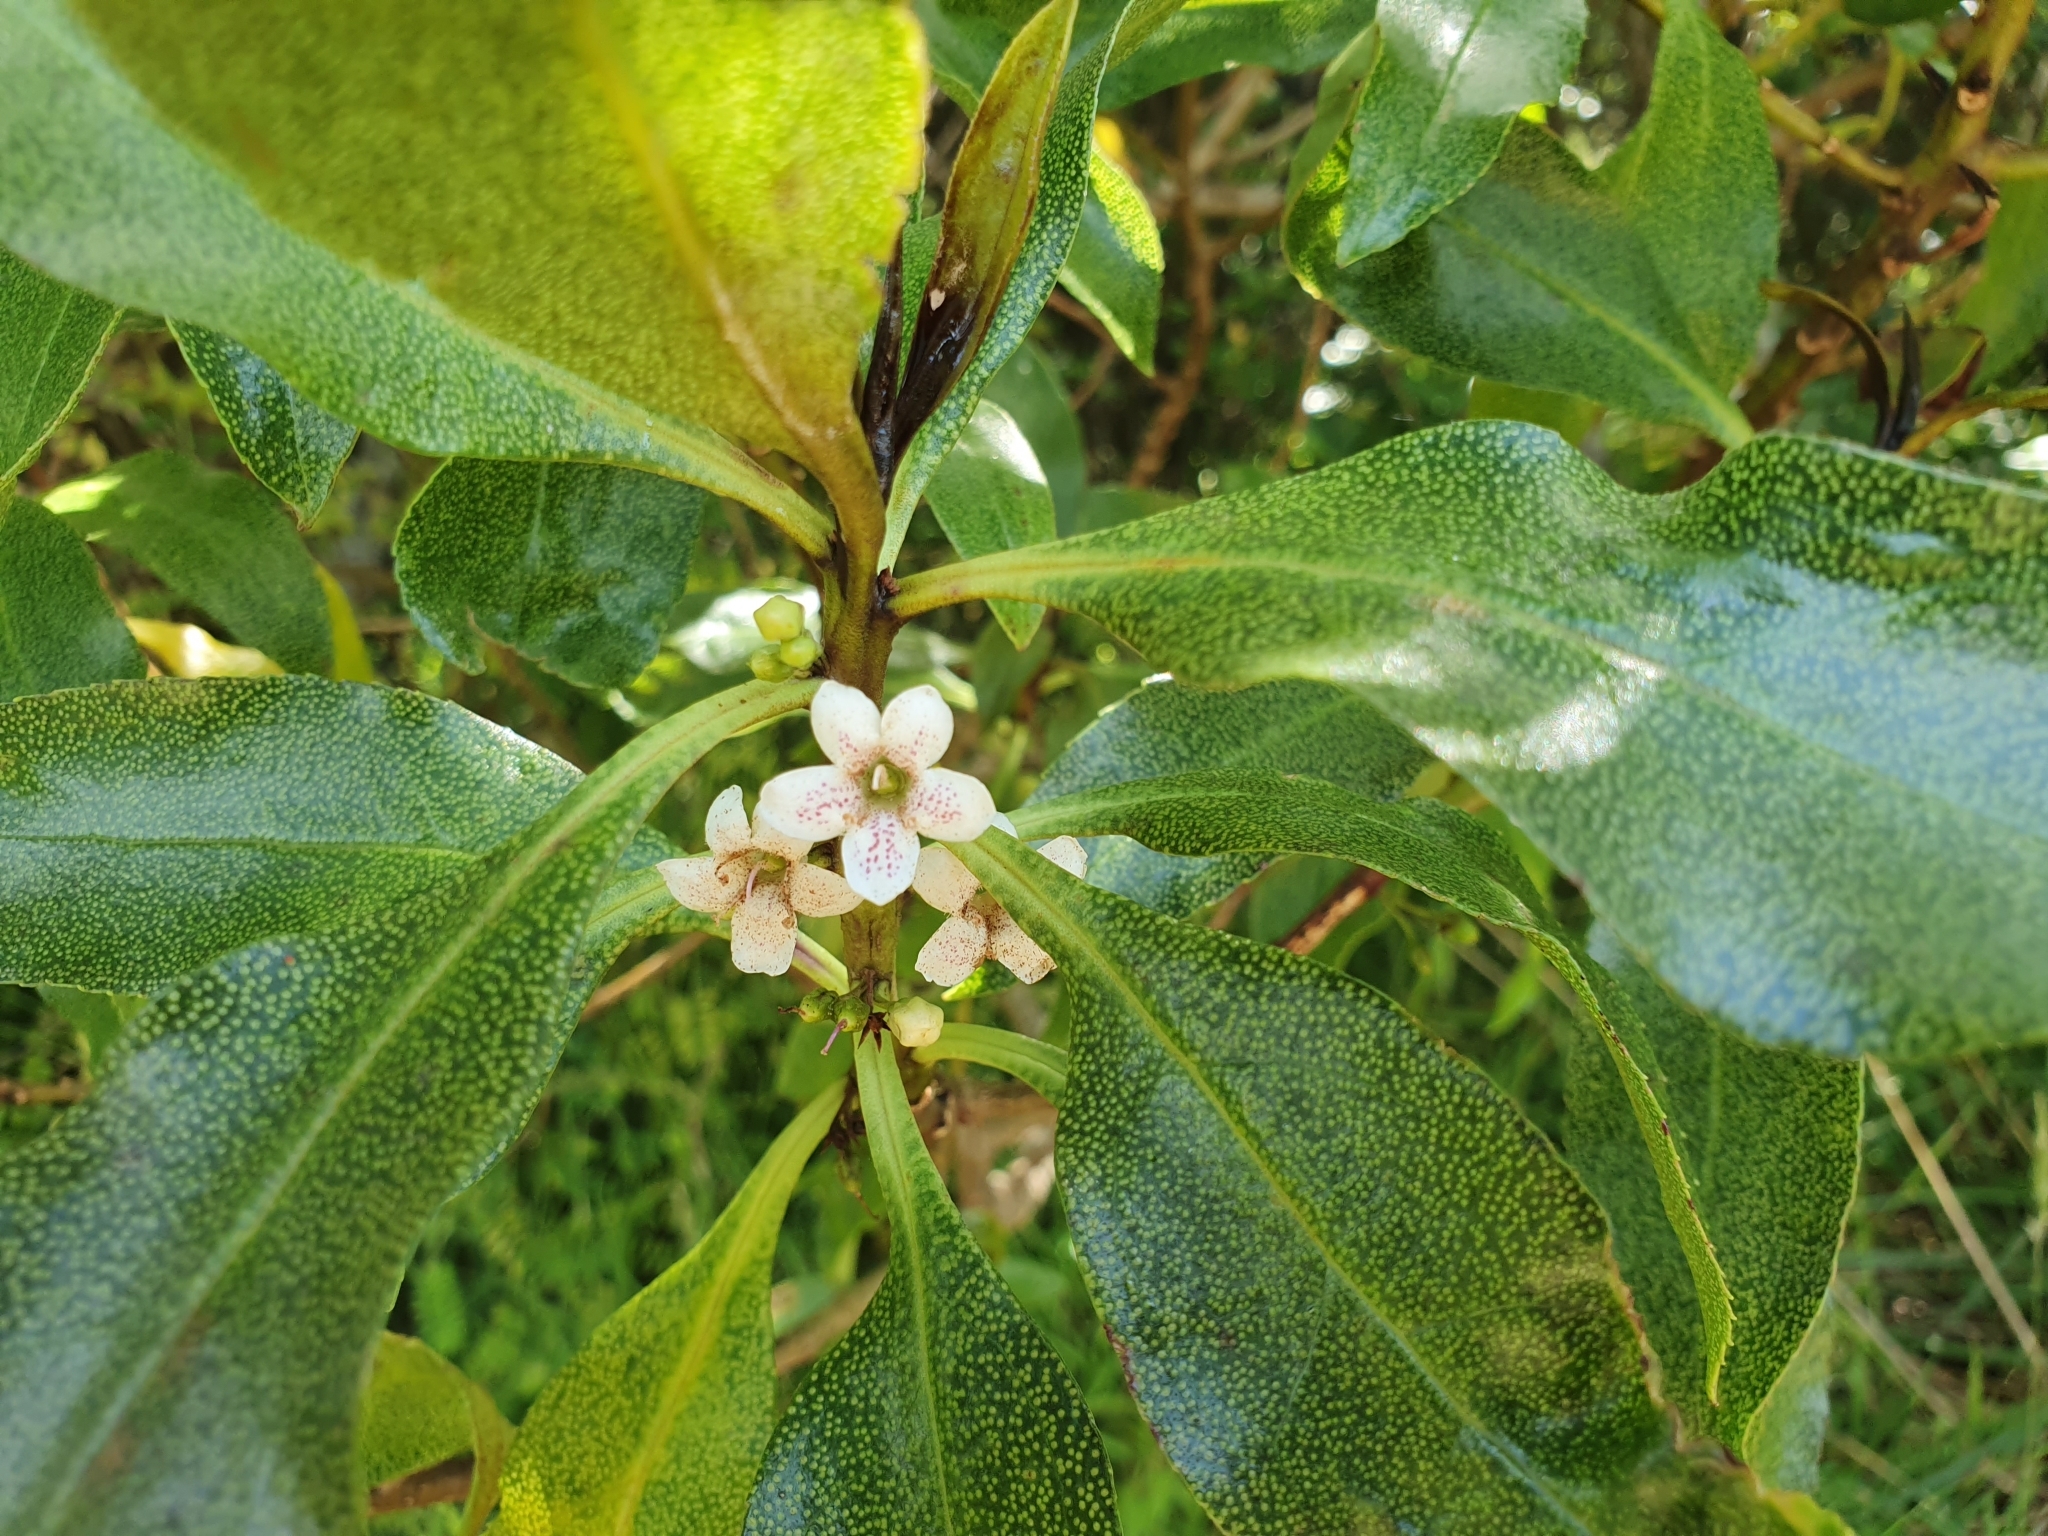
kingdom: Plantae
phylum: Tracheophyta
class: Magnoliopsida
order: Lamiales
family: Scrophulariaceae
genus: Myoporum
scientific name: Myoporum laetum
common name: Ngaio tree
